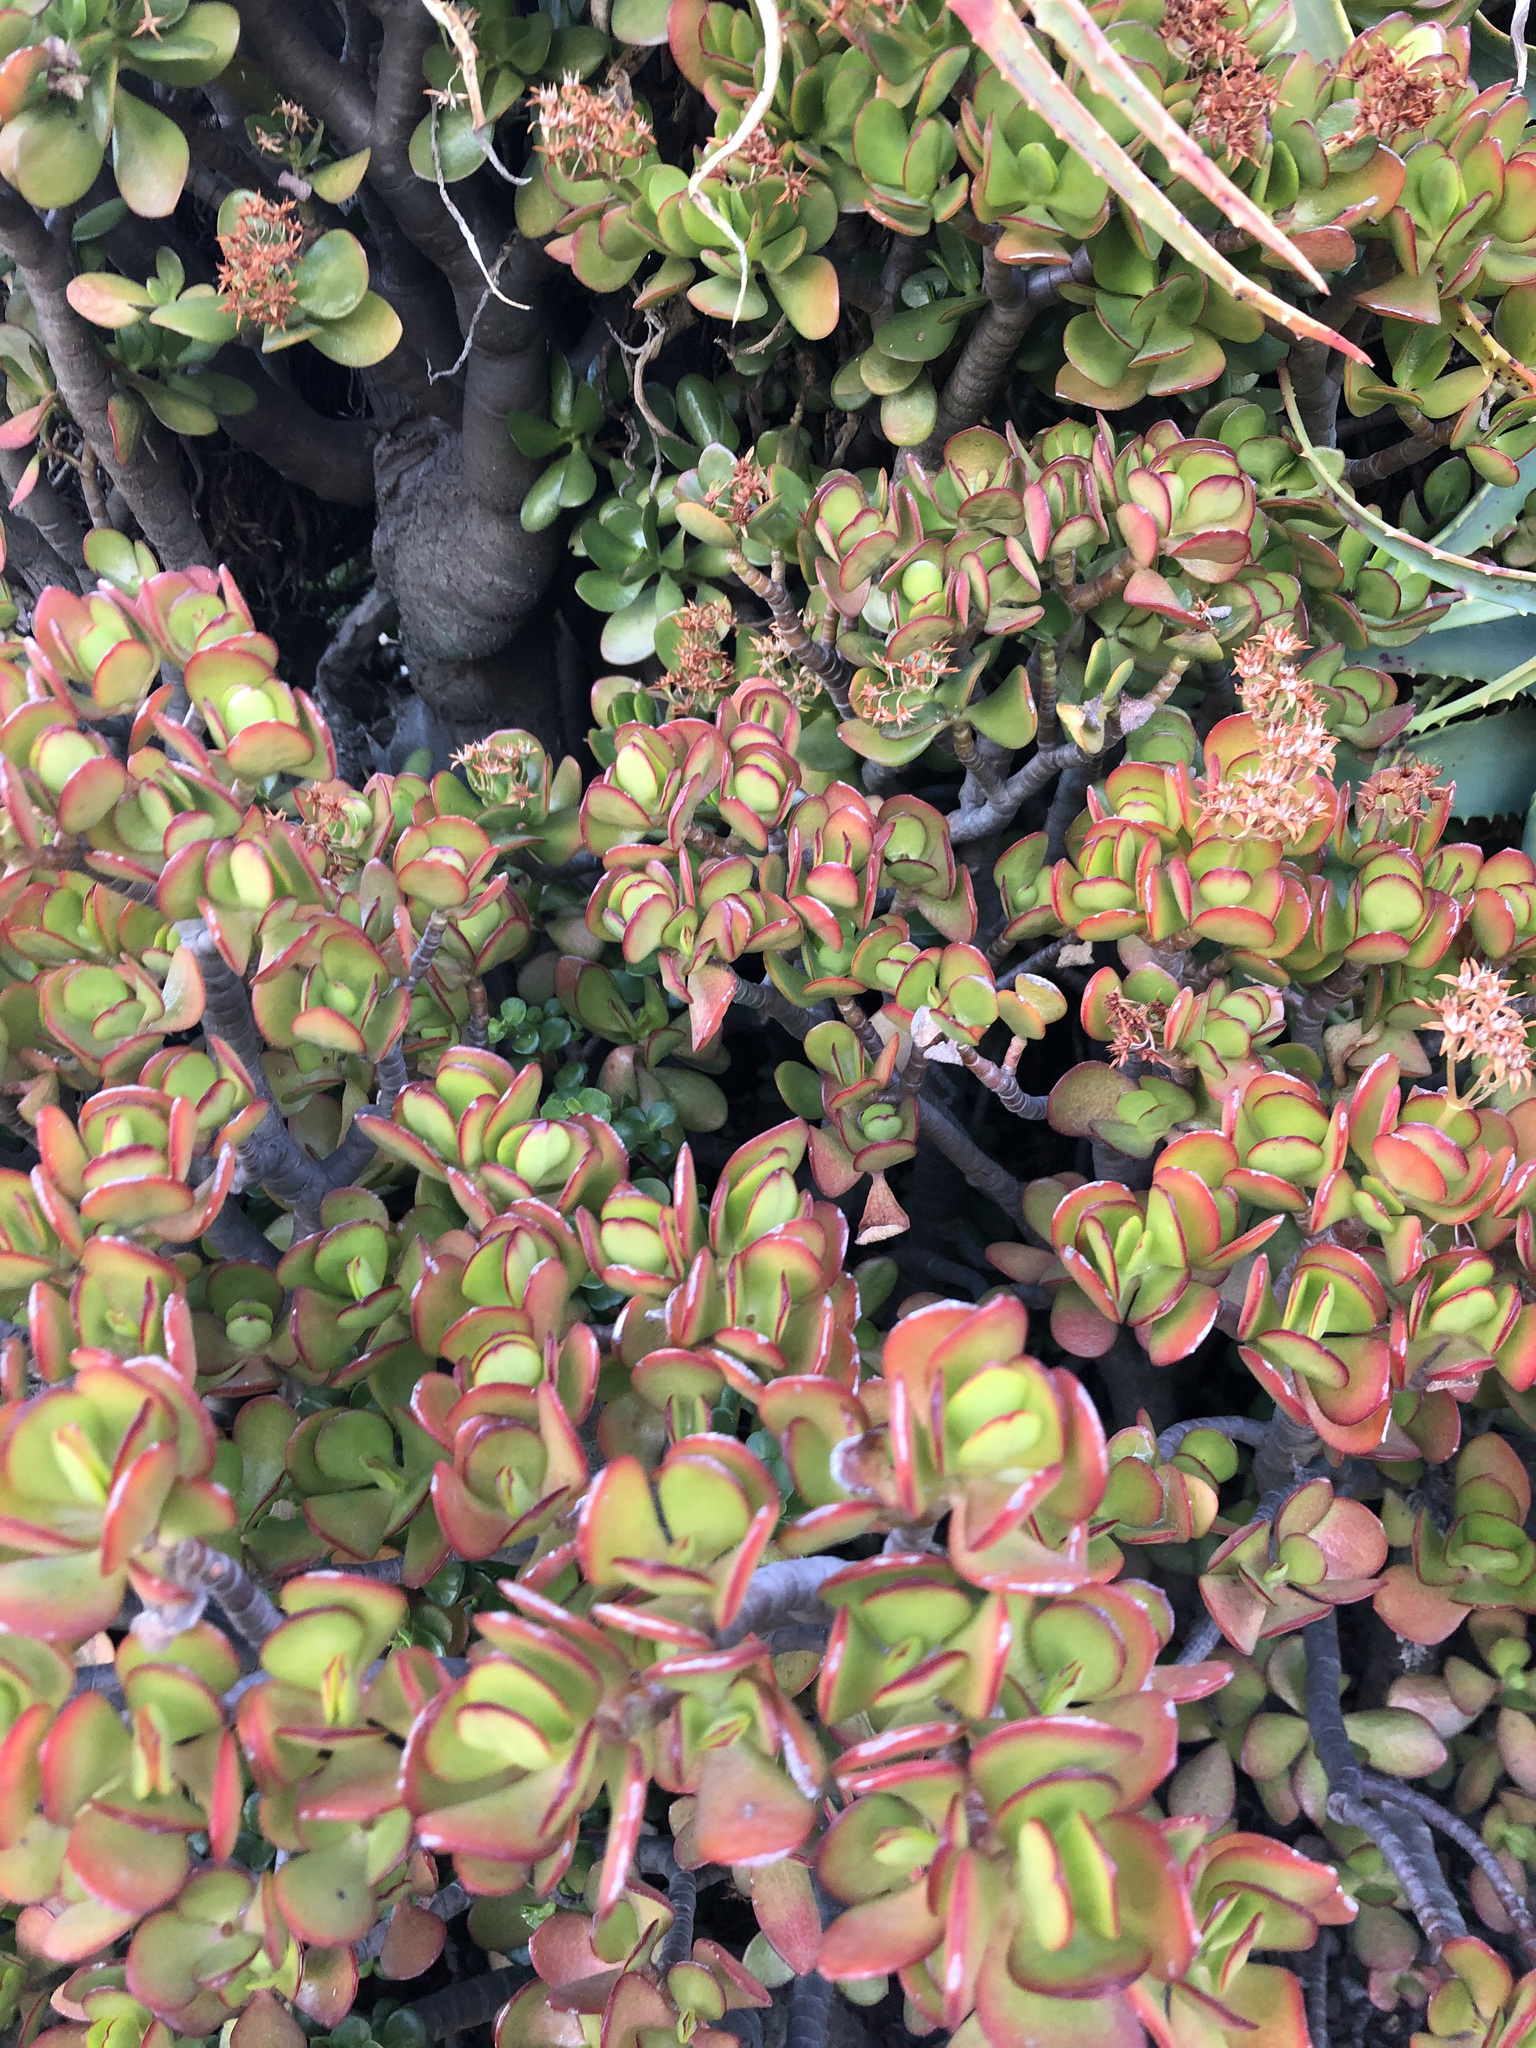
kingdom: Plantae
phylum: Tracheophyta
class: Magnoliopsida
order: Saxifragales
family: Crassulaceae
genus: Crassula
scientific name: Crassula ovata
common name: Jade plant
